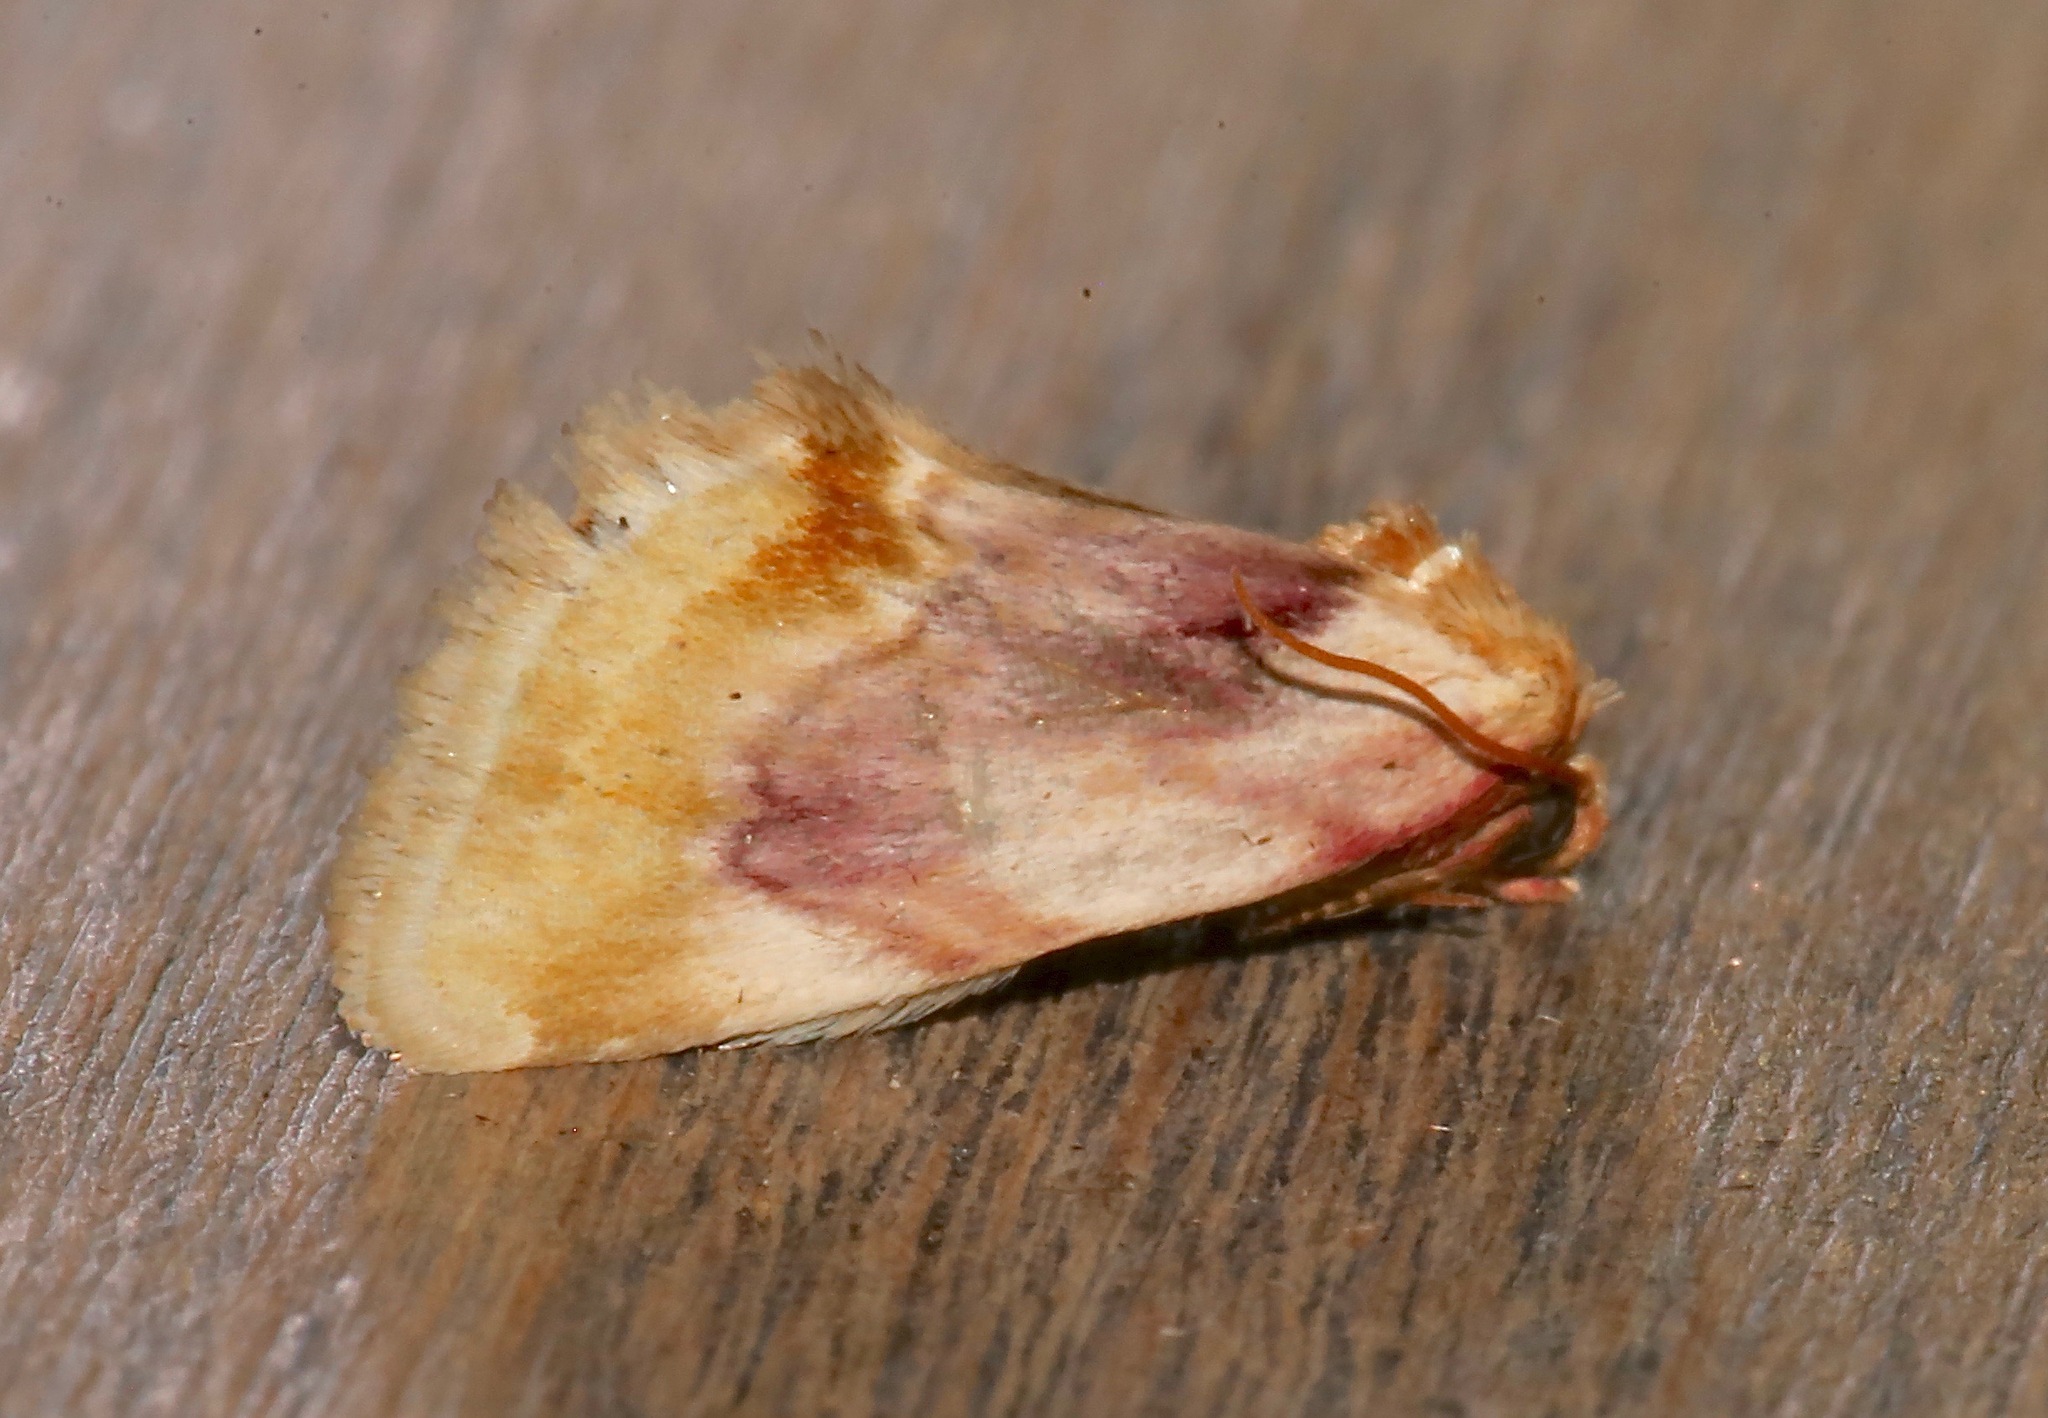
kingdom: Animalia
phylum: Arthropoda
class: Insecta
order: Lepidoptera
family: Noctuidae
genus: Chamaeclea
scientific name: Chamaeclea pernana
